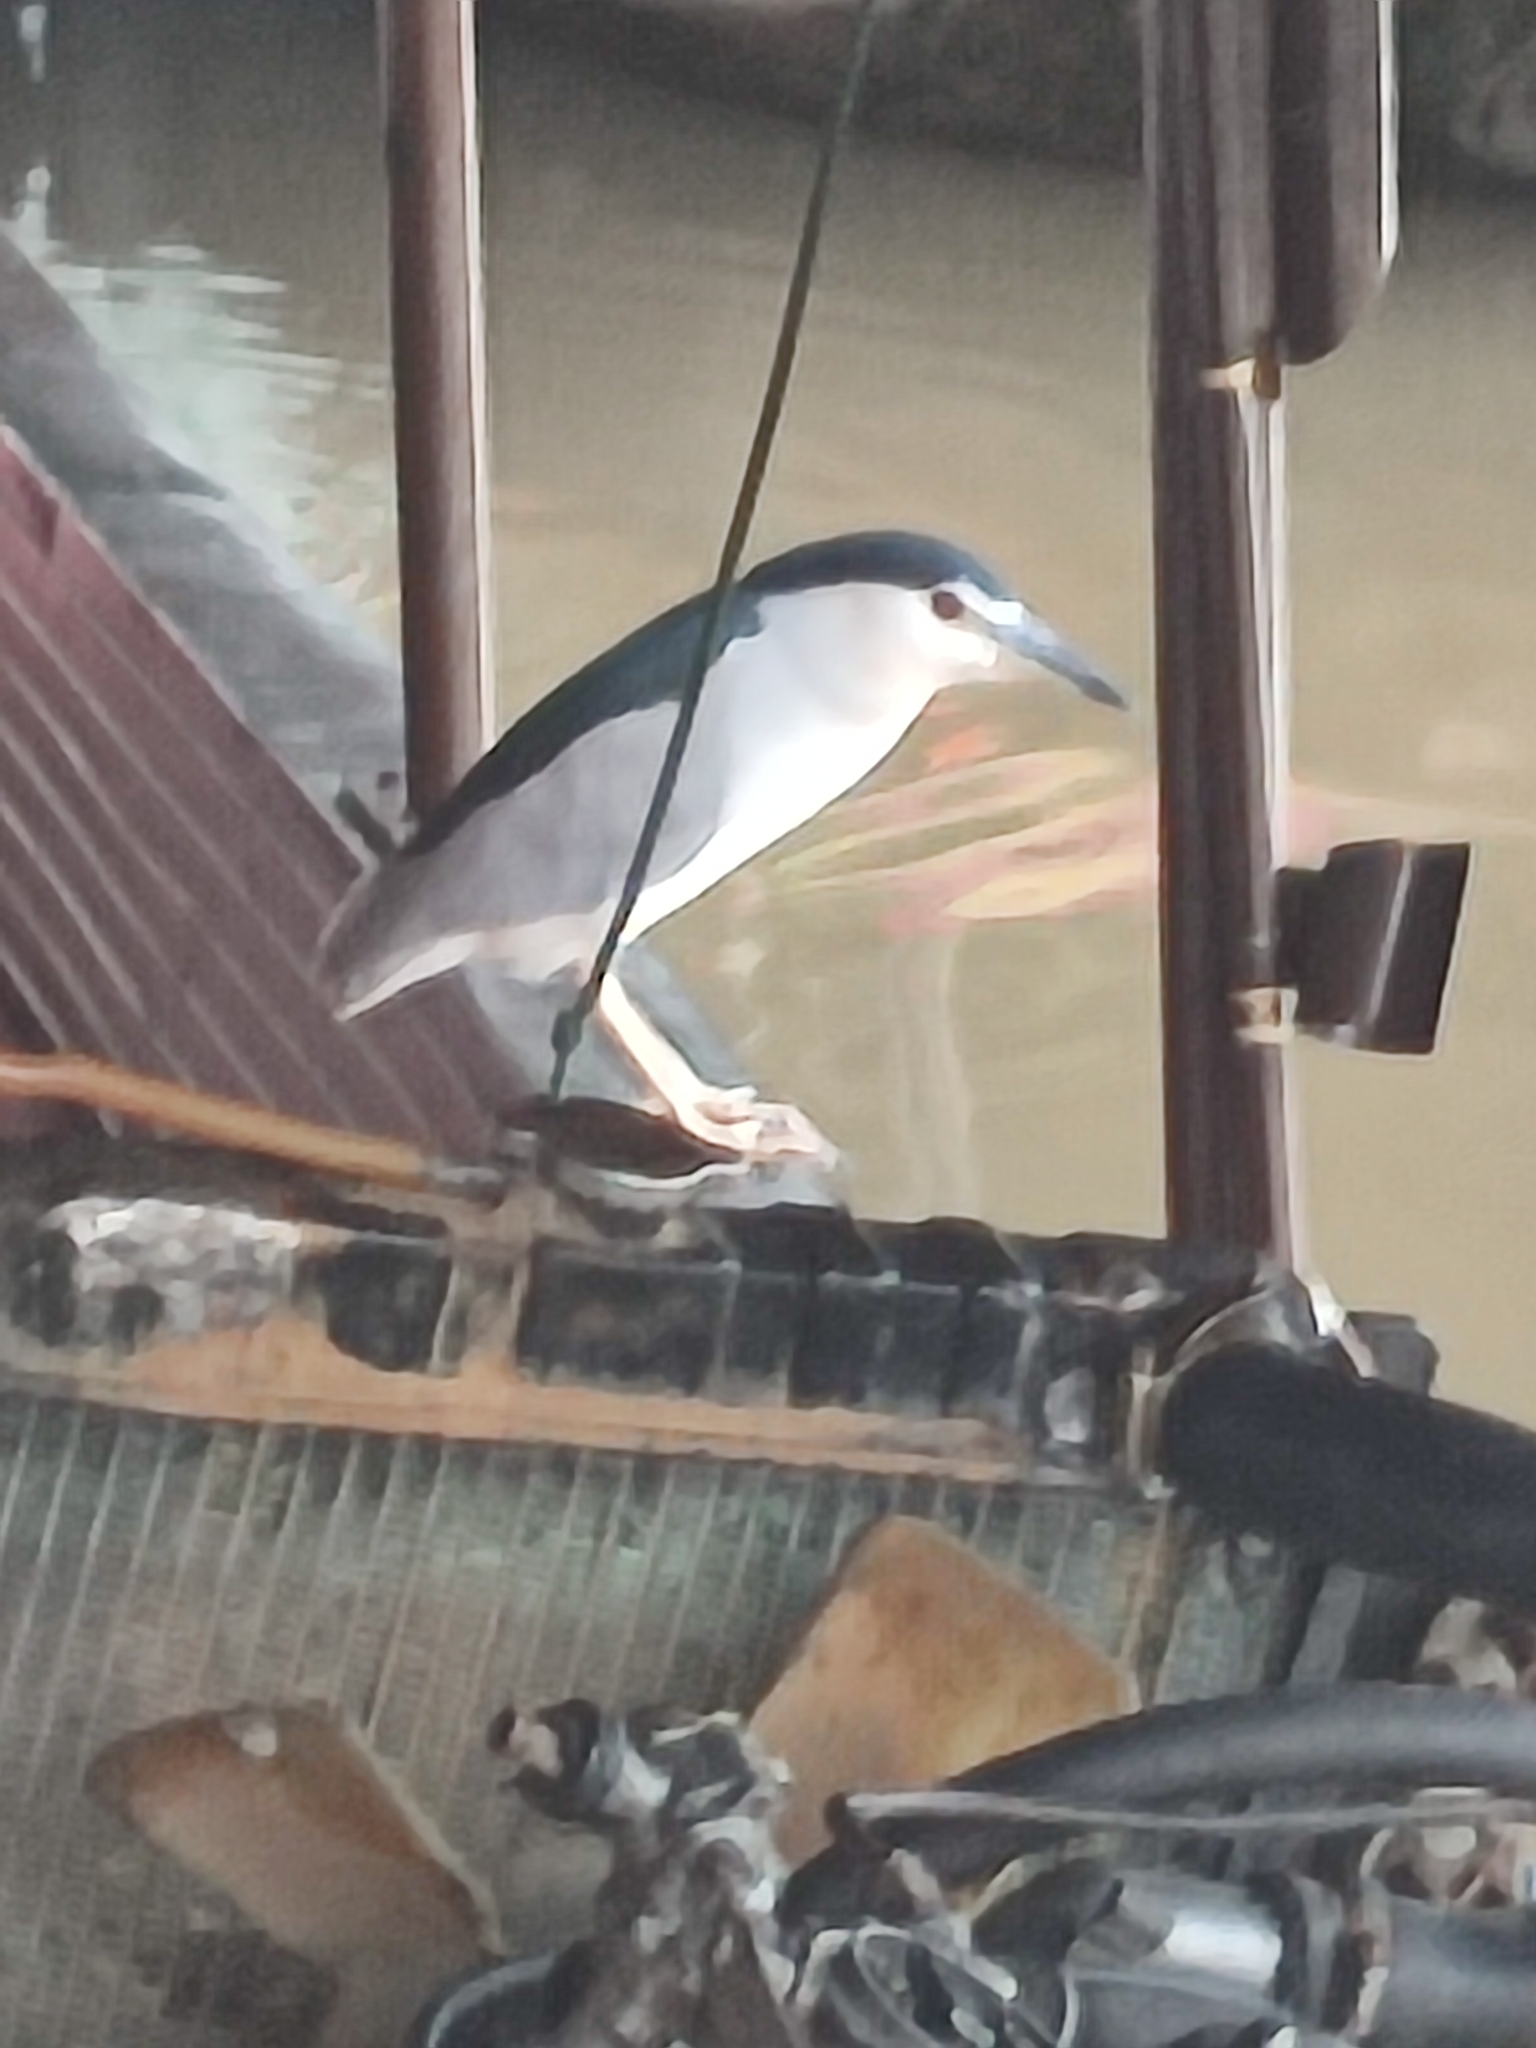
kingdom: Animalia
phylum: Chordata
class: Aves
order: Pelecaniformes
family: Ardeidae
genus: Nycticorax
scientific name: Nycticorax nycticorax
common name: Black-crowned night heron
